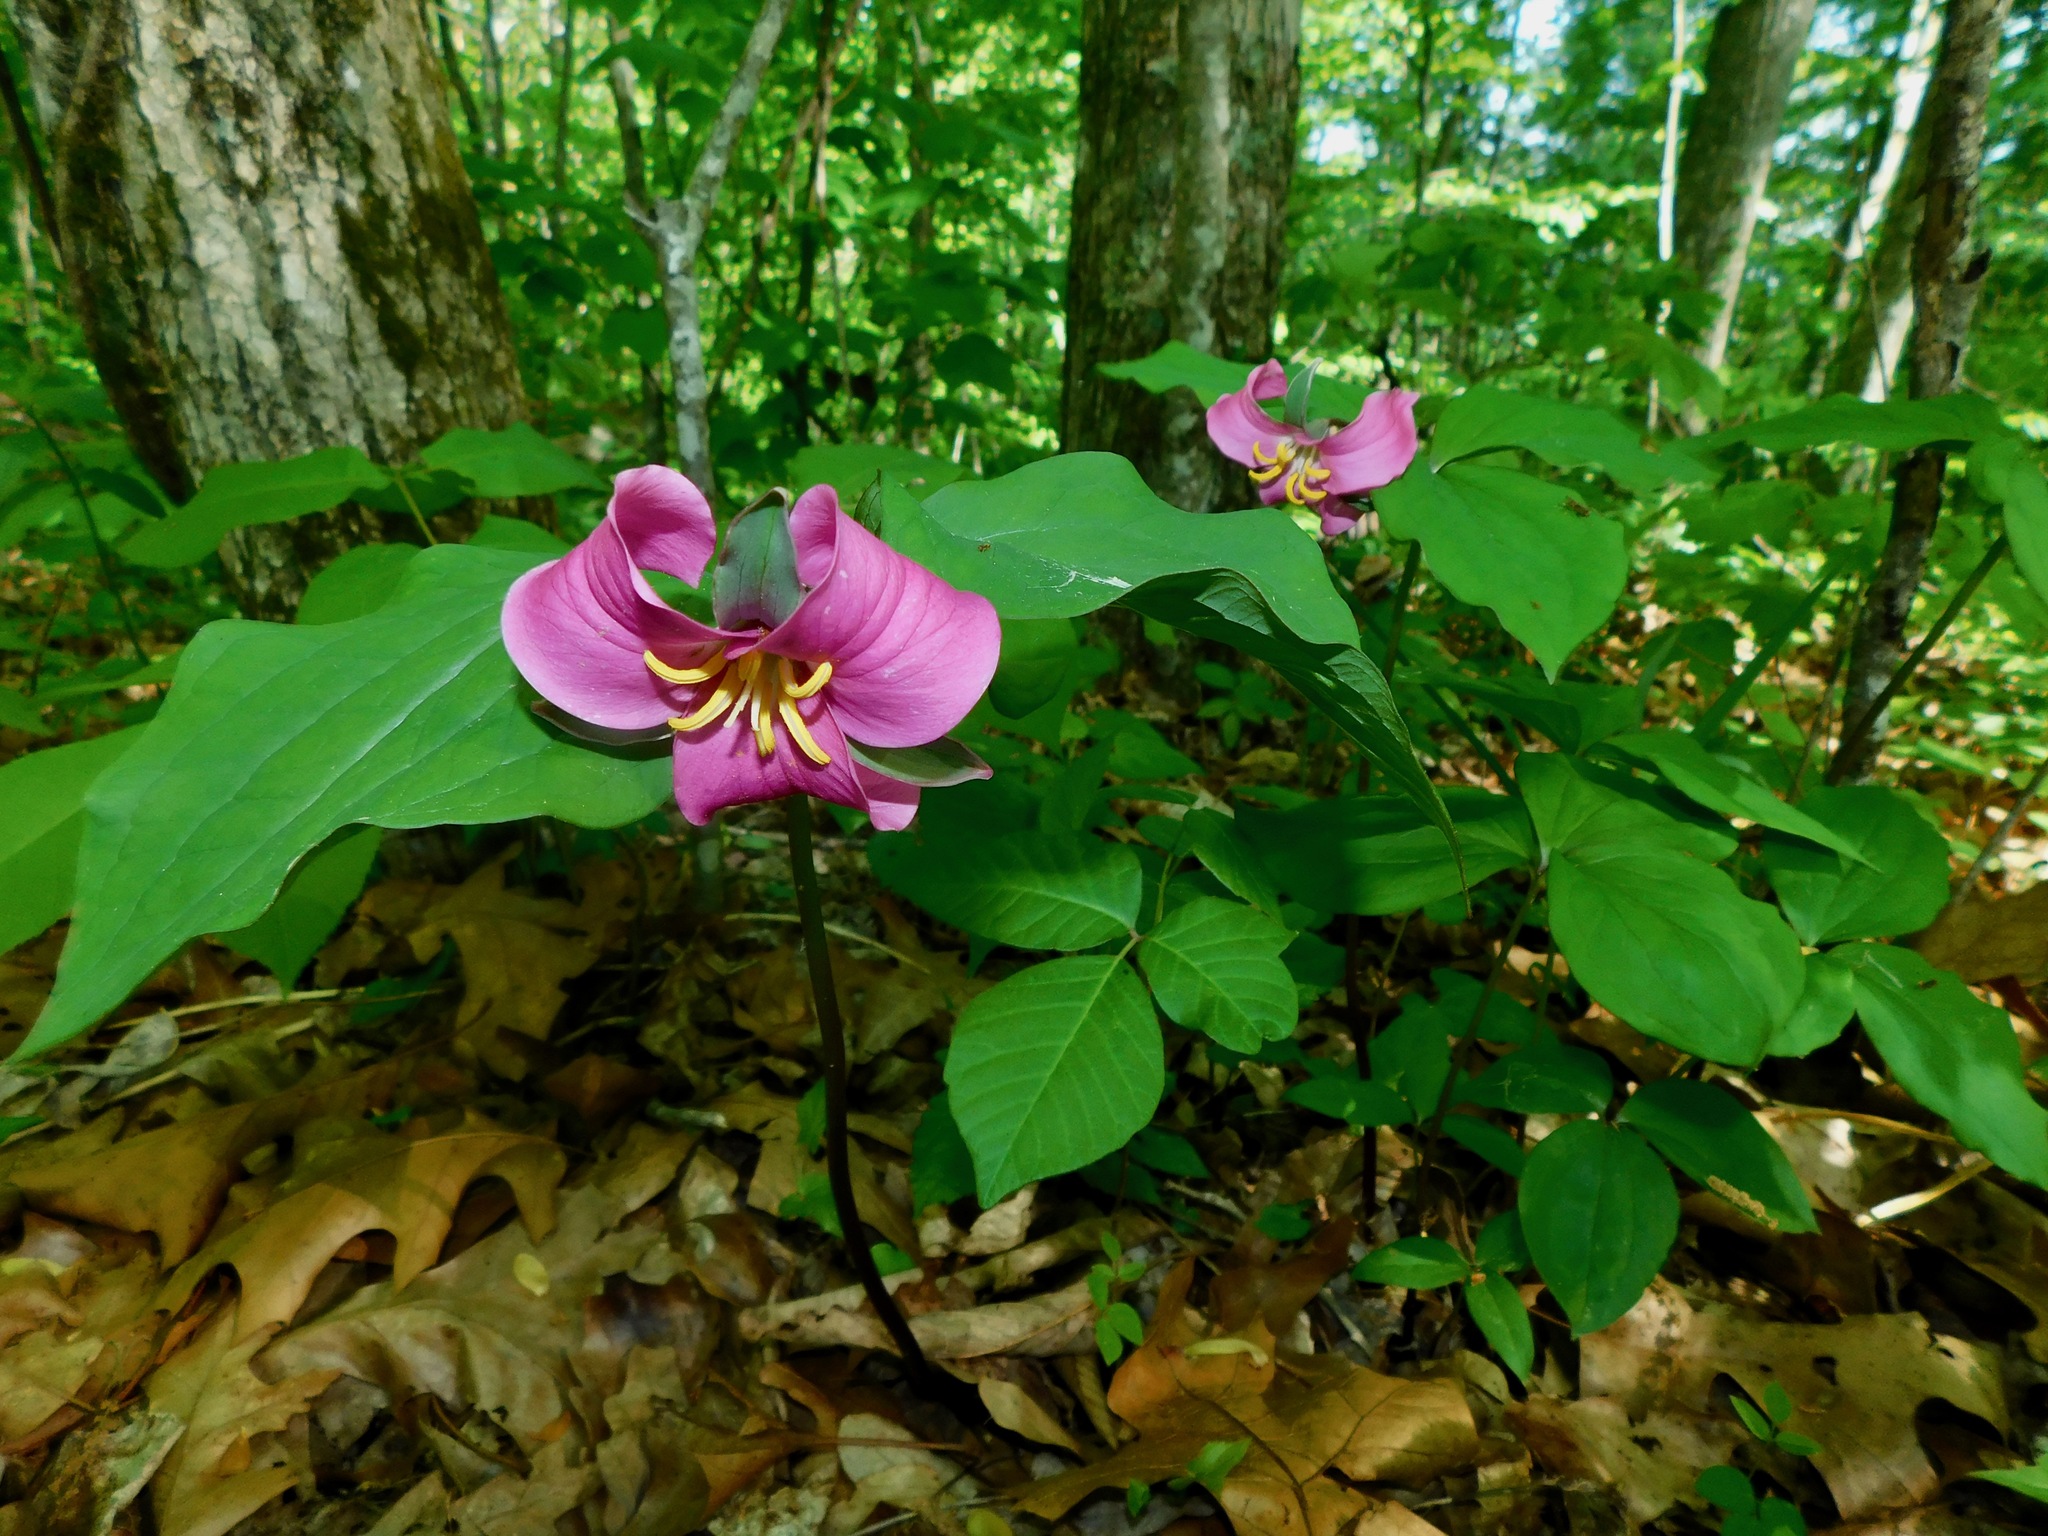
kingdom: Plantae
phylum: Tracheophyta
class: Liliopsida
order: Liliales
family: Melanthiaceae
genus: Trillium
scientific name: Trillium catesbaei
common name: Bashful trillium
